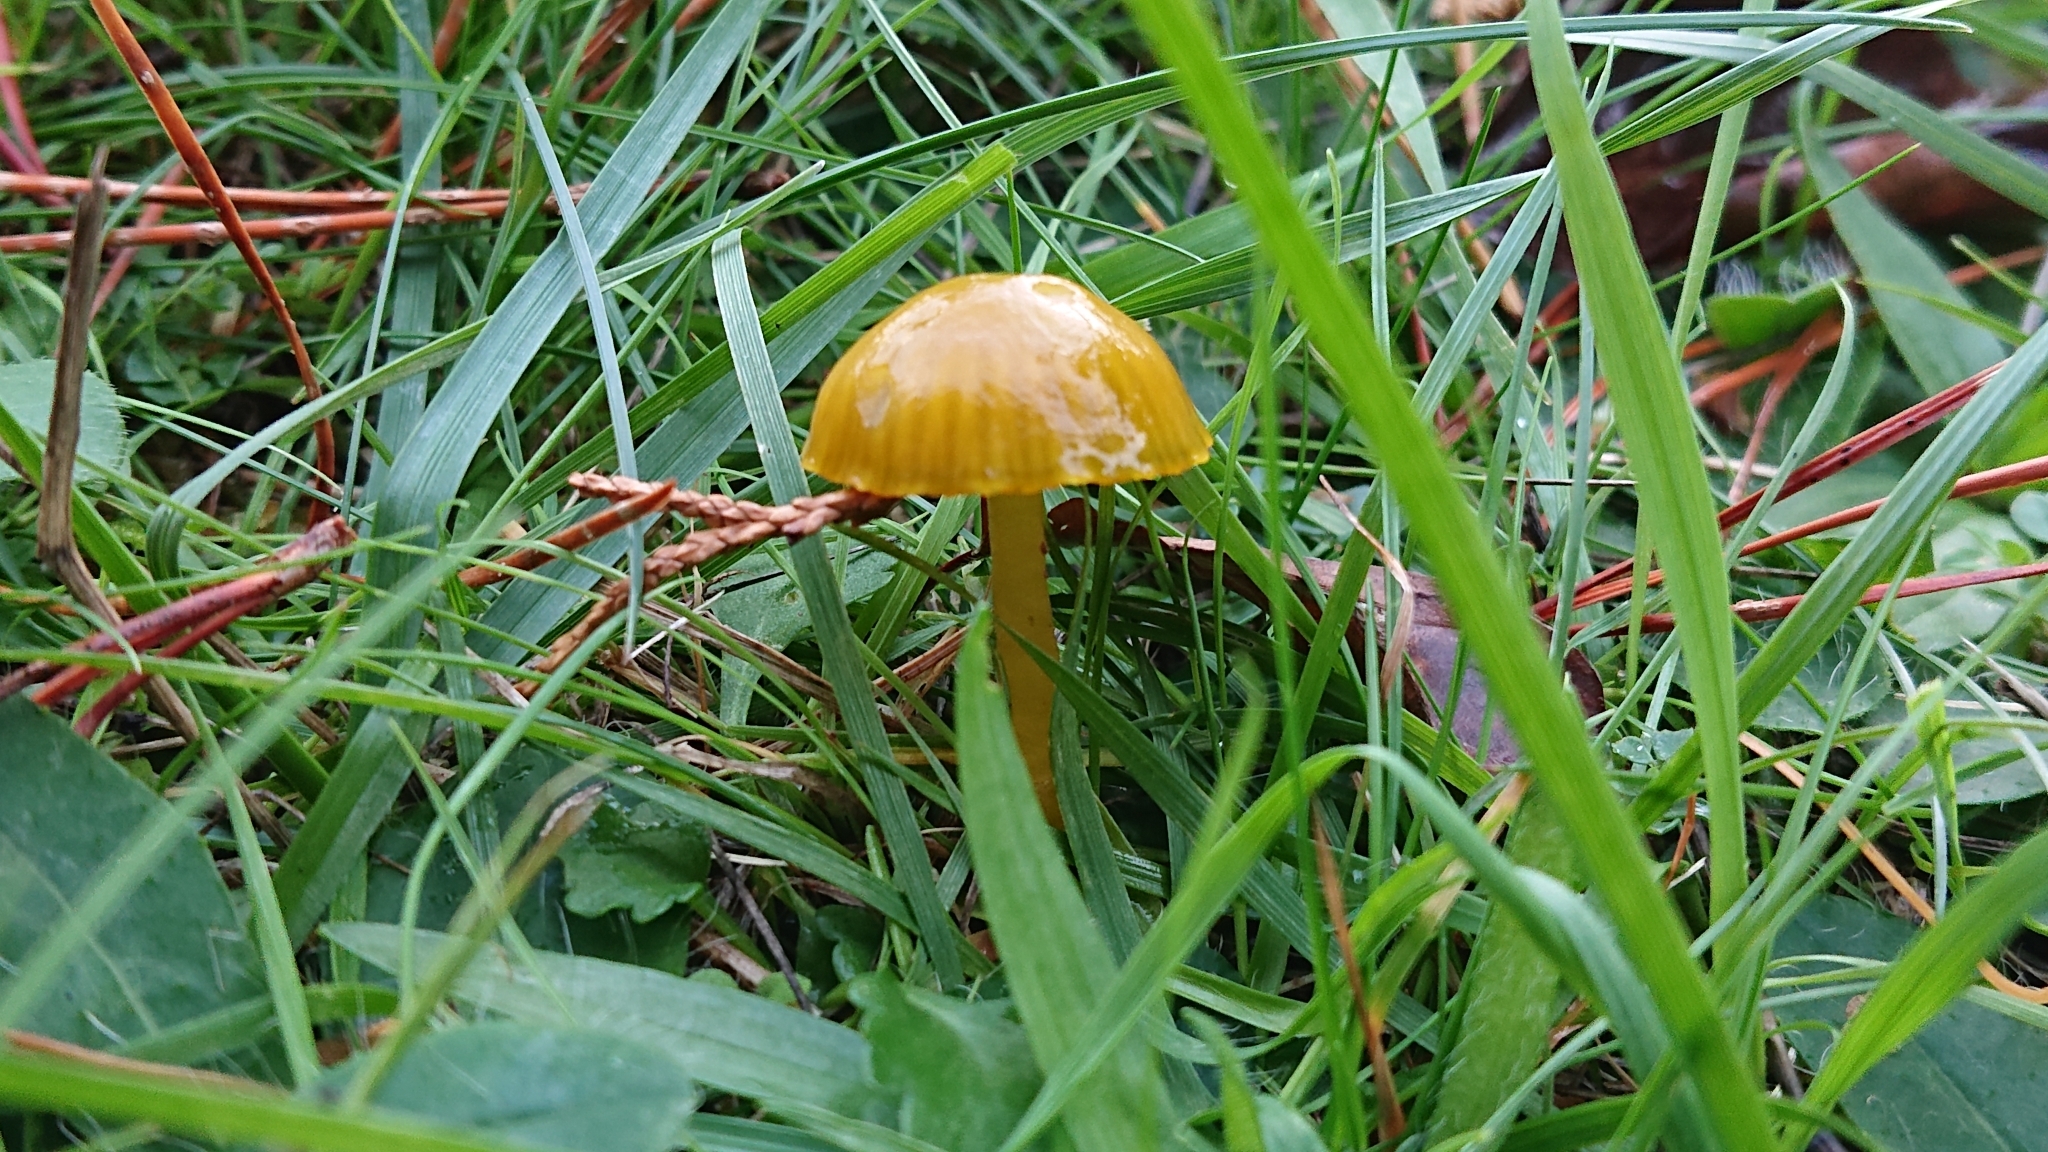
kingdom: Fungi
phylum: Basidiomycota
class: Agaricomycetes
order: Agaricales
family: Hygrophoraceae
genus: Gliophorus
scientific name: Gliophorus psittacinus
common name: Parrot wax-cap
